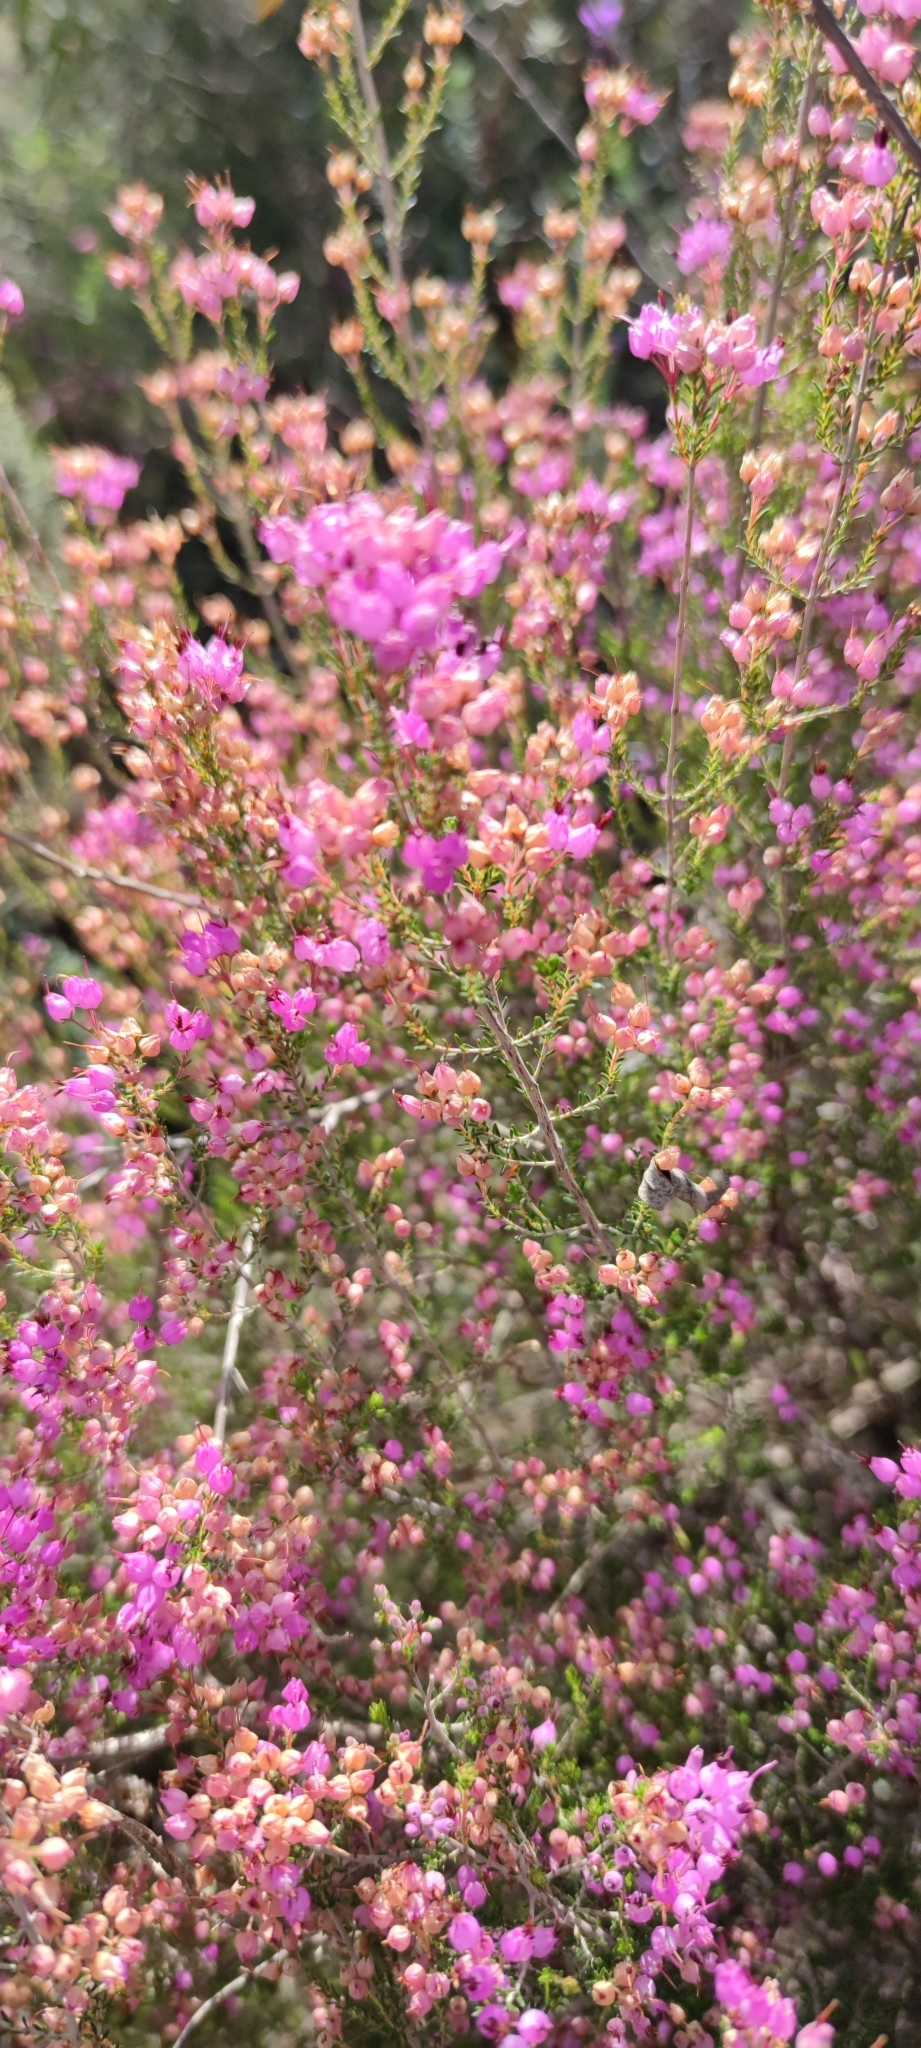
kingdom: Plantae
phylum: Tracheophyta
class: Magnoliopsida
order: Ericales
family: Ericaceae
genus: Erica
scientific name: Erica umbellata
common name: Dwarf spanish heath
